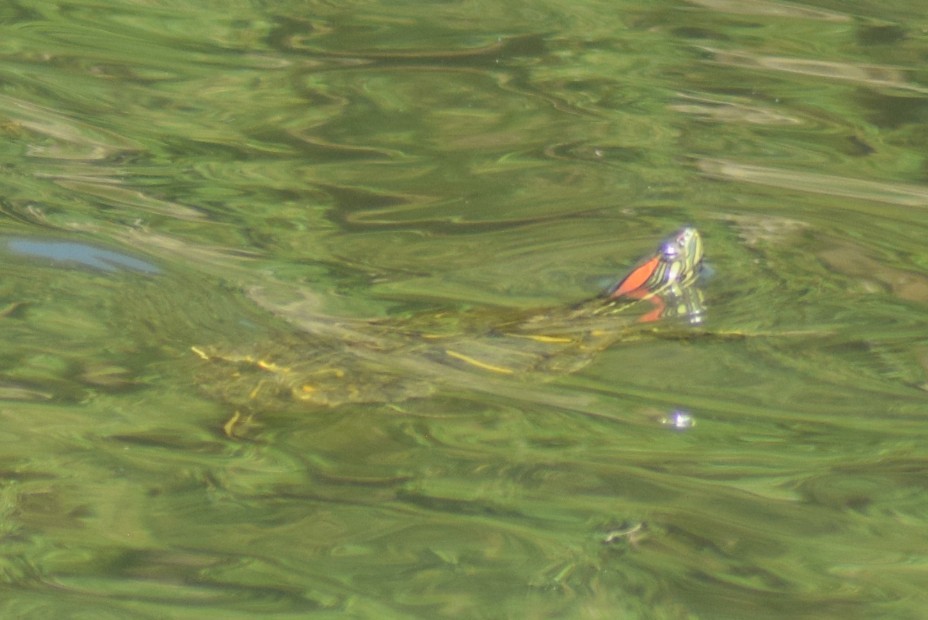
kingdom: Animalia
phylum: Chordata
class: Testudines
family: Emydidae
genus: Trachemys
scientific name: Trachemys scripta
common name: Slider
